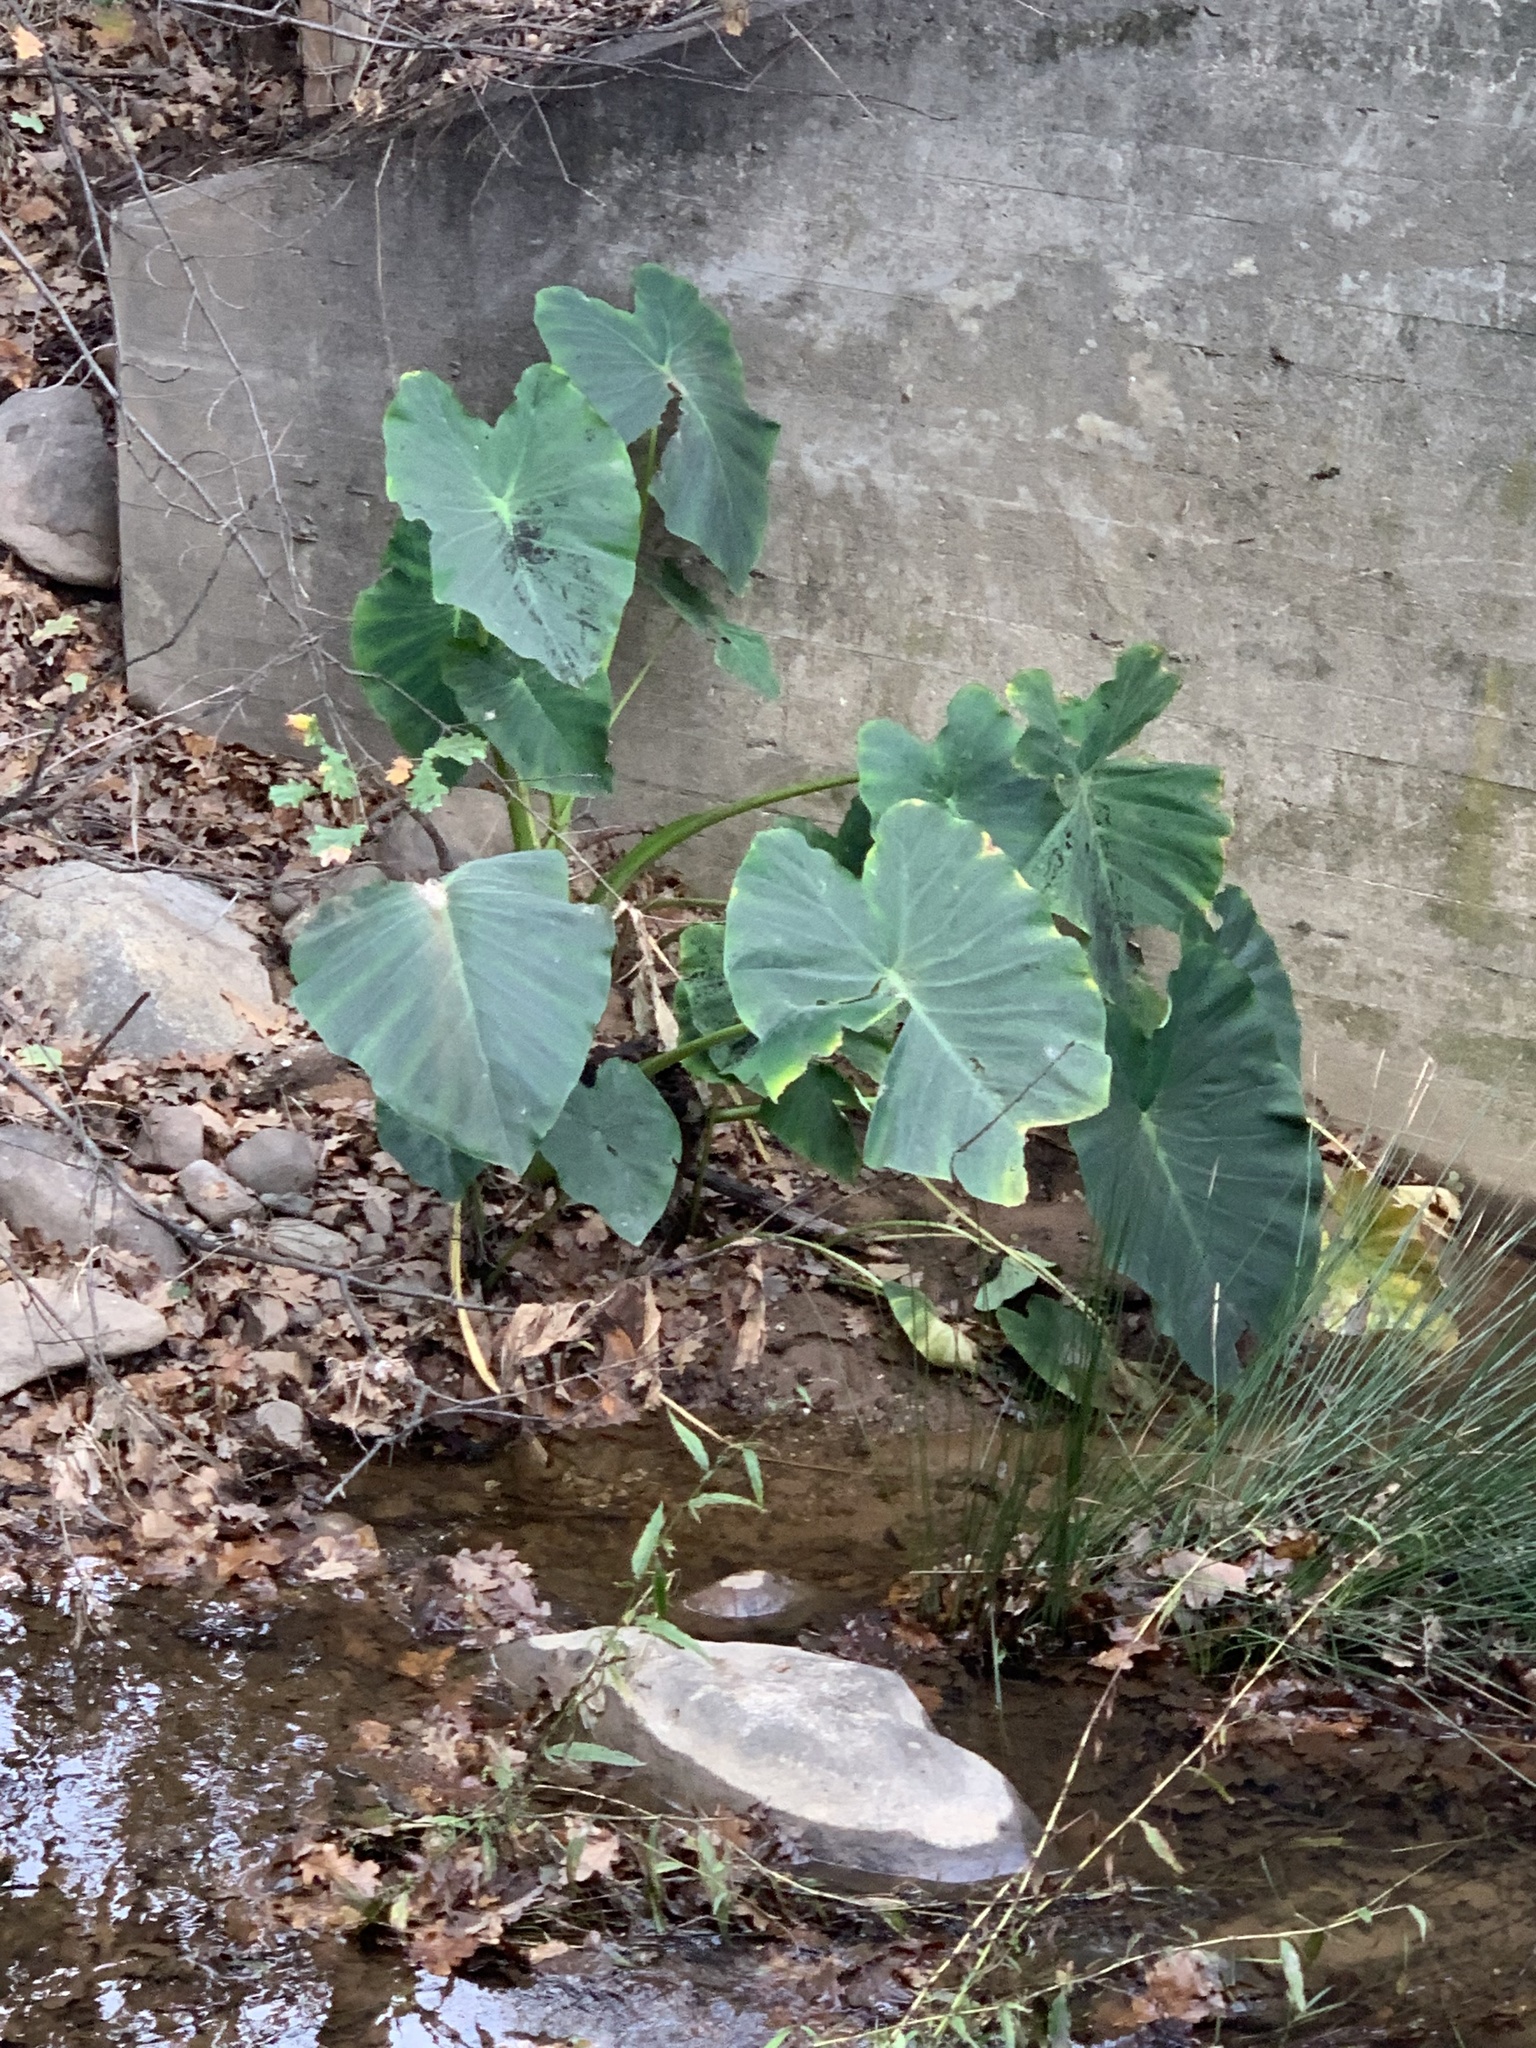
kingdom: Plantae
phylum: Tracheophyta
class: Liliopsida
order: Alismatales
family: Araceae
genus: Colocasia
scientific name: Colocasia esculenta
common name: Taro
